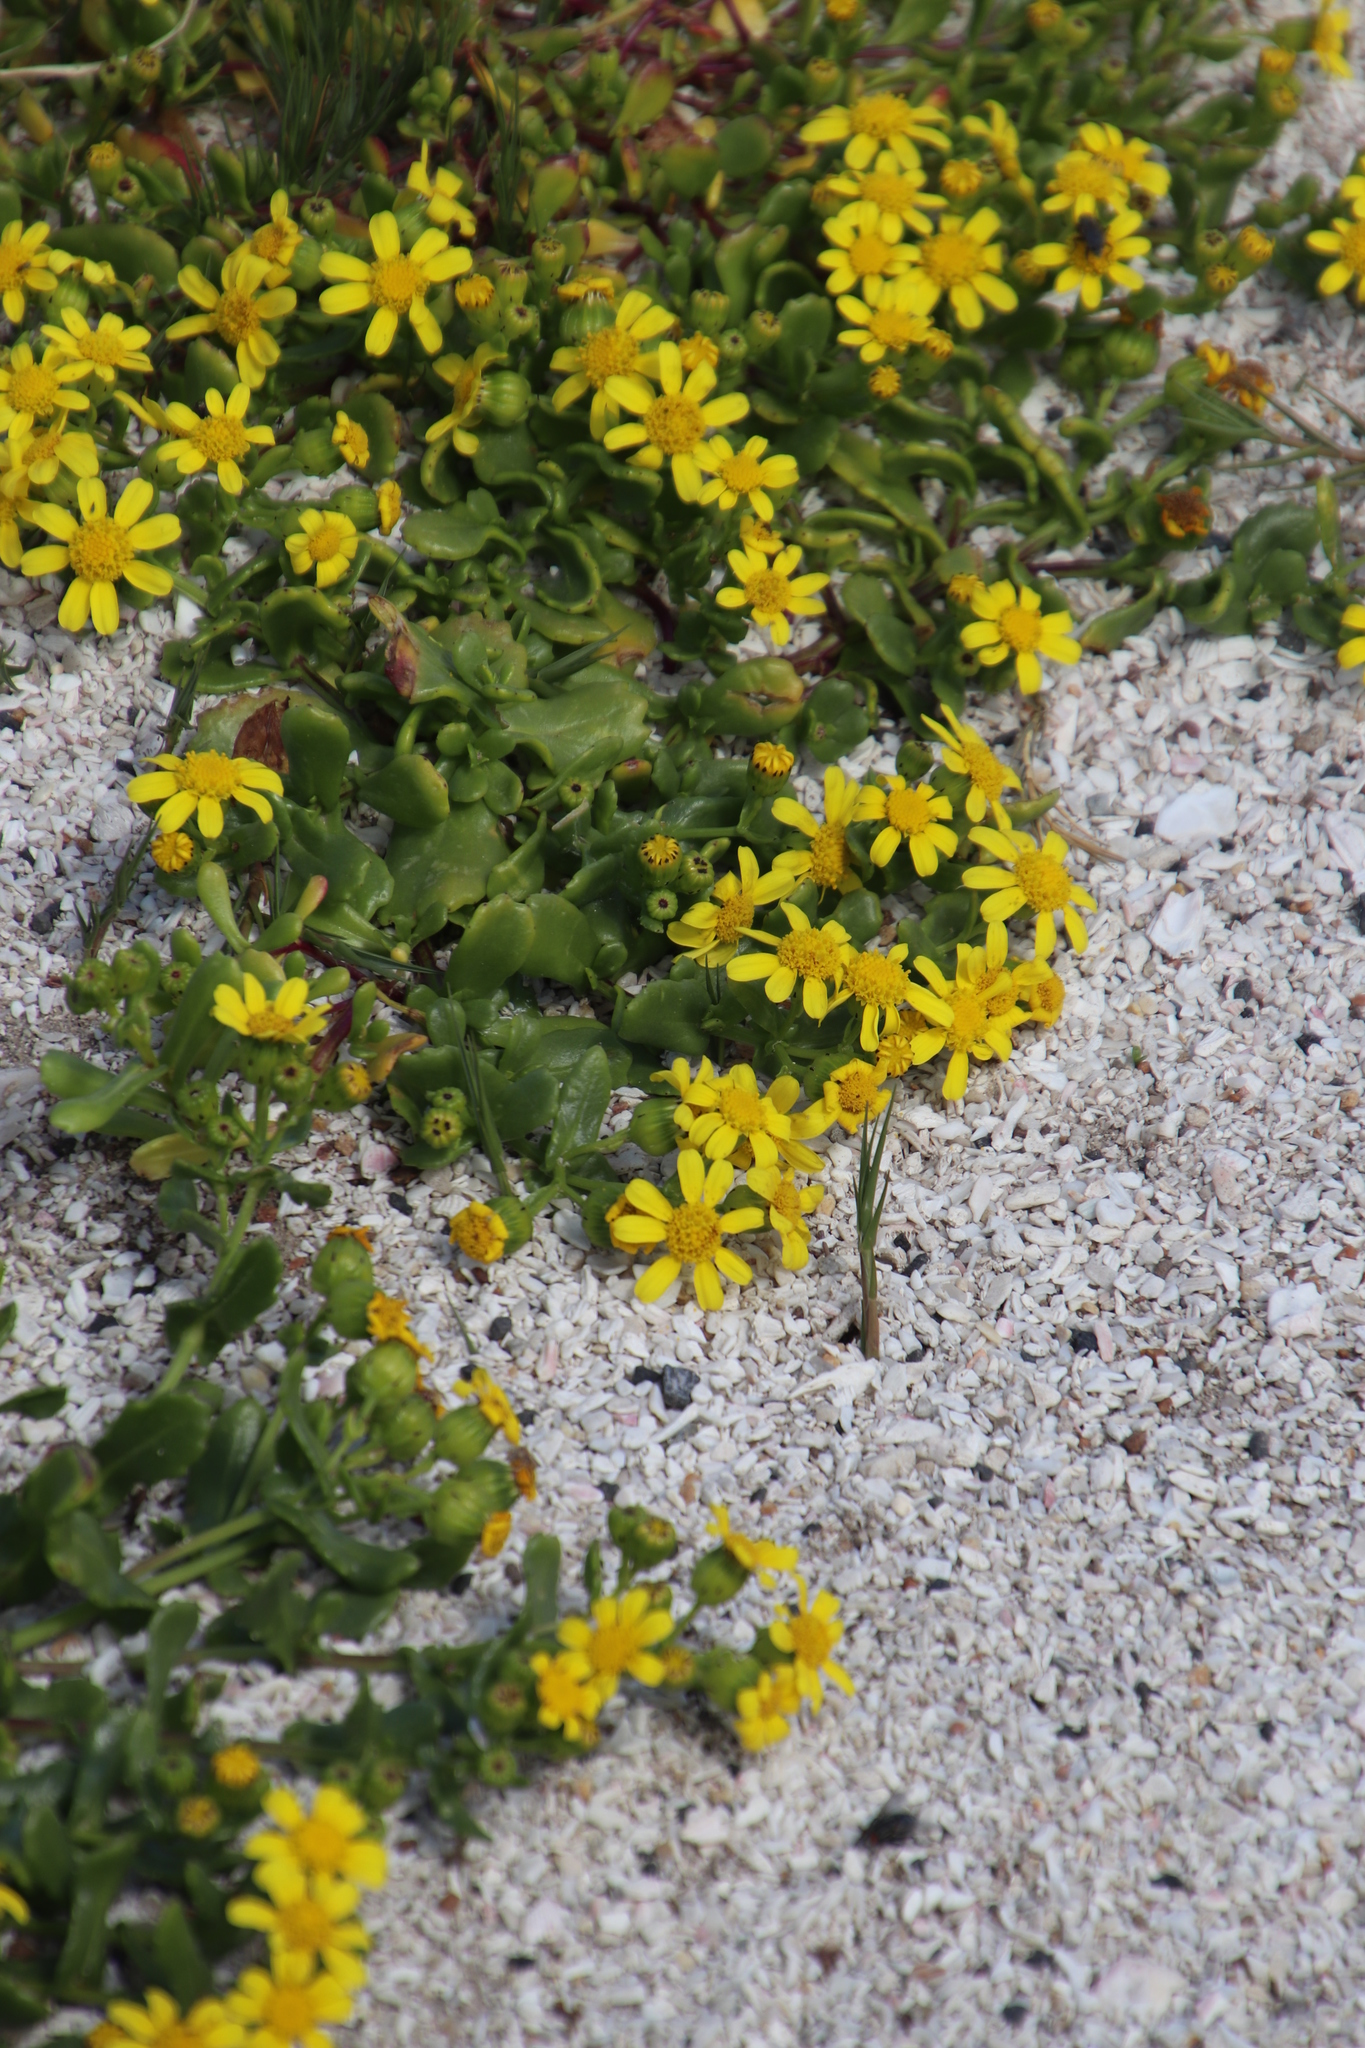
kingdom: Plantae
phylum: Tracheophyta
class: Magnoliopsida
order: Asterales
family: Asteraceae
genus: Senecio
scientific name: Senecio maritimus
